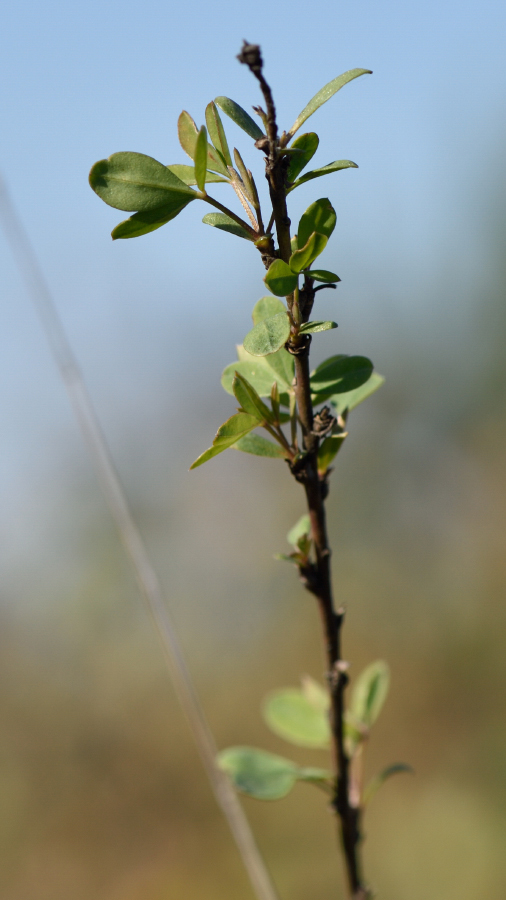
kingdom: Plantae
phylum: Tracheophyta
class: Magnoliopsida
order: Fabales
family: Fabaceae
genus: Chamaecytisus
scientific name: Chamaecytisus ruthenicus
